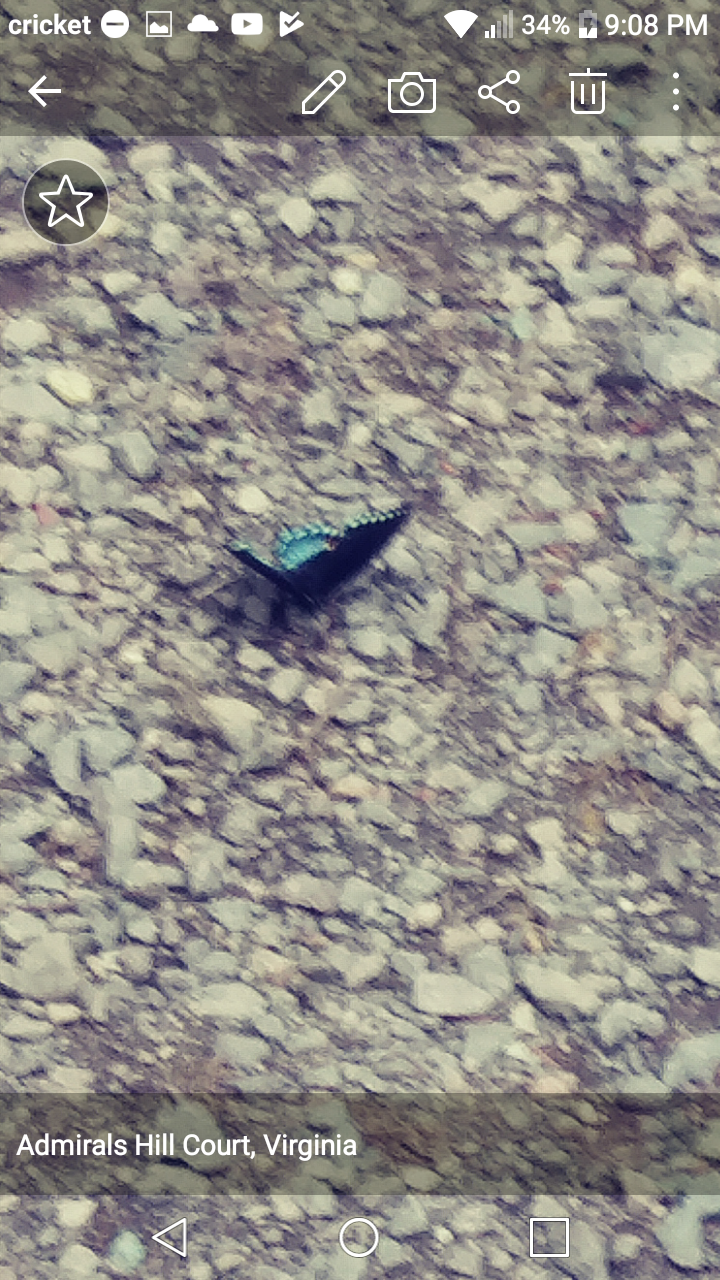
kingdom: Animalia
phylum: Arthropoda
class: Insecta
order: Lepidoptera
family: Papilionidae
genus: Papilio
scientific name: Papilio troilus
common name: Spicebush swallowtail
